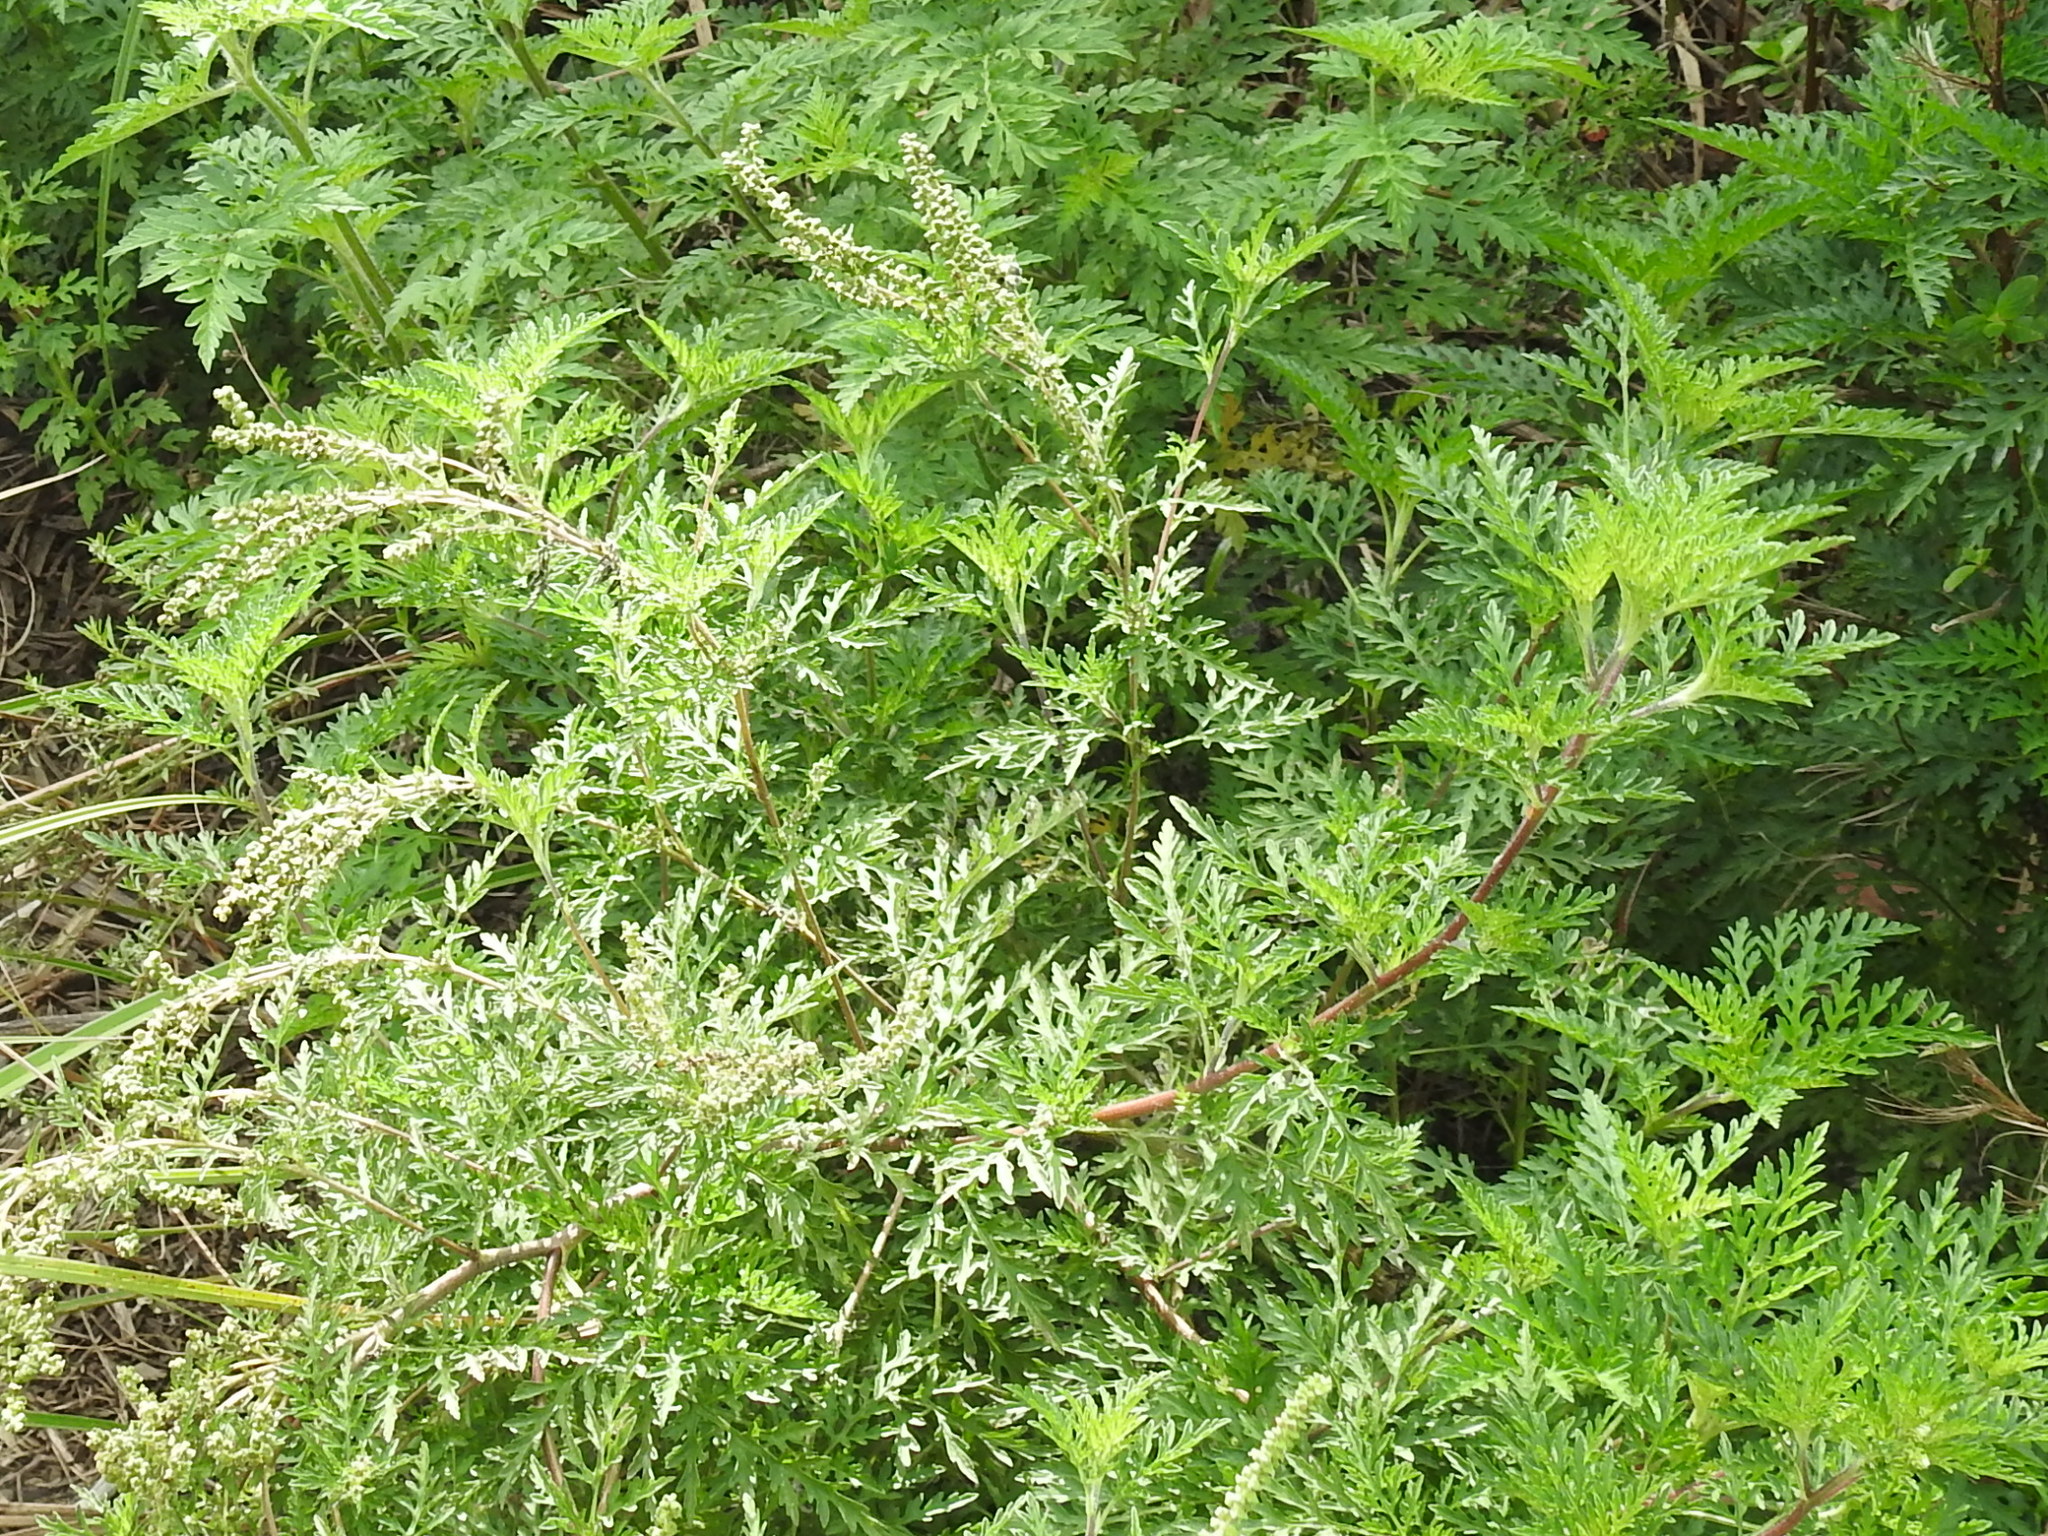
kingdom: Plantae
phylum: Tracheophyta
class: Magnoliopsida
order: Asterales
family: Asteraceae
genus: Ambrosia
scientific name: Ambrosia artemisiifolia
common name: Annual ragweed
